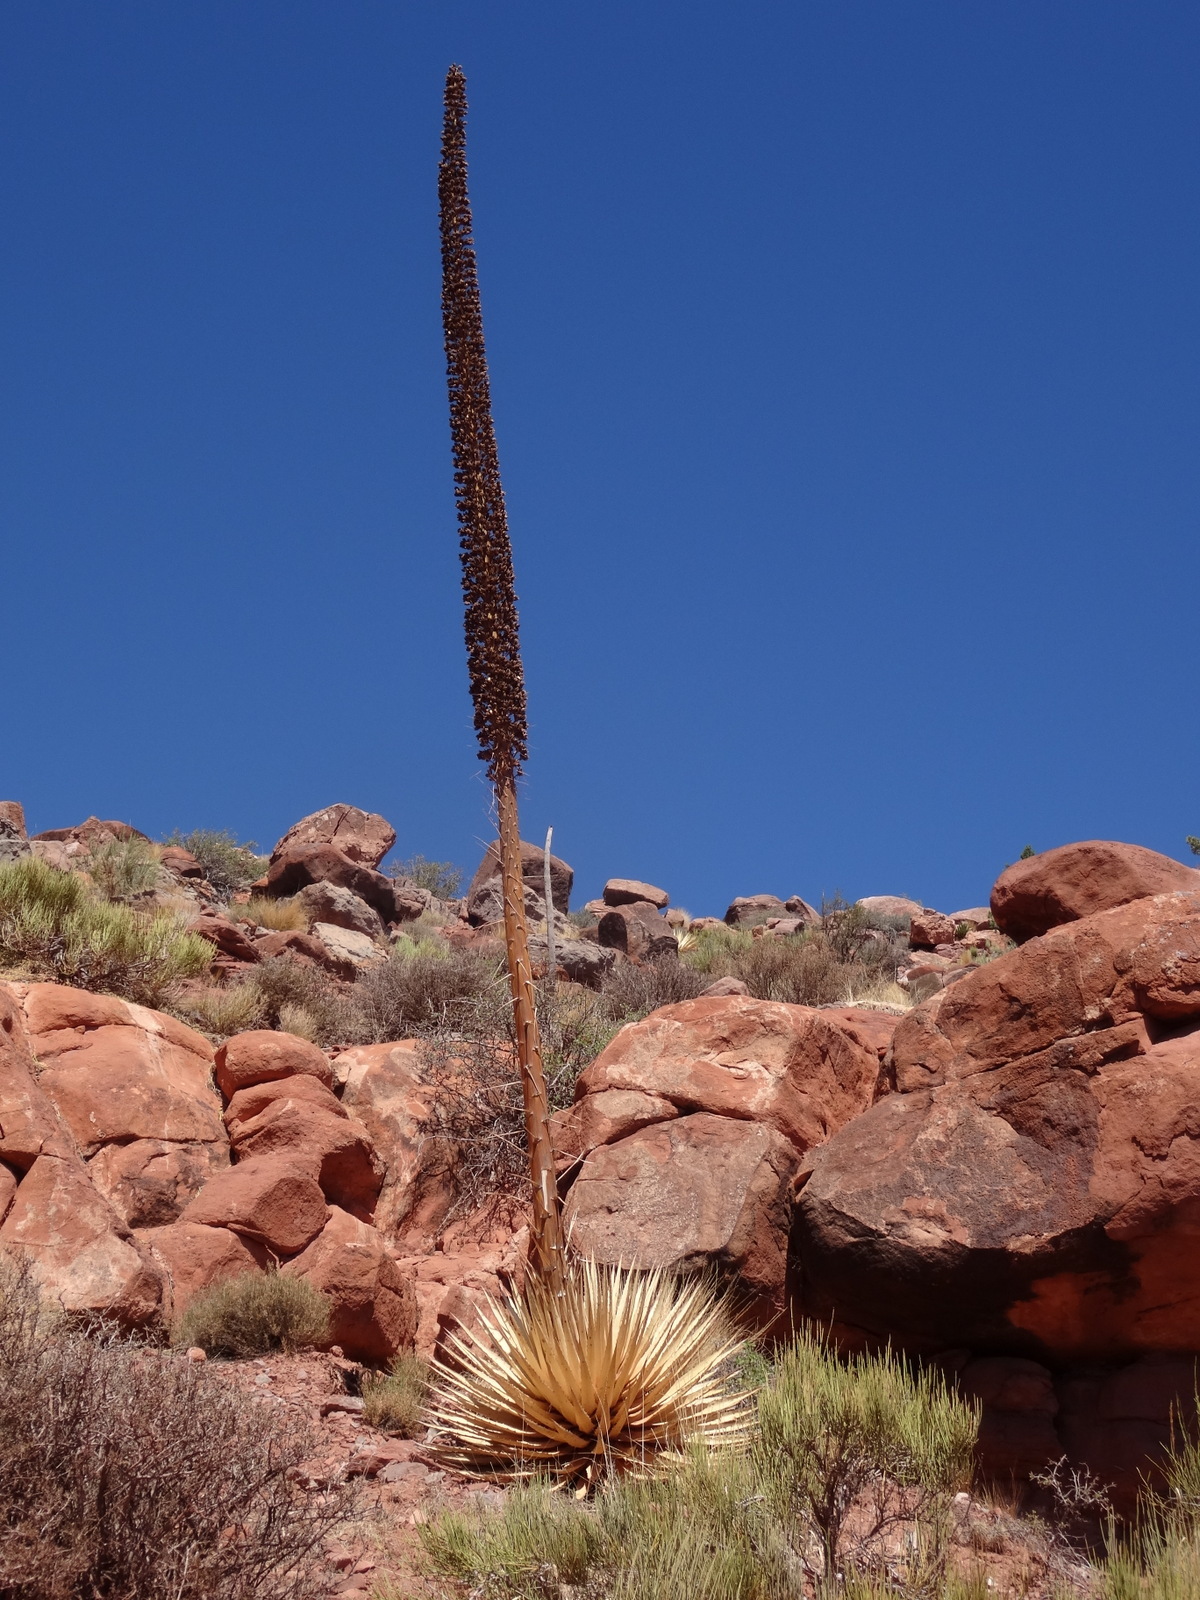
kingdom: Plantae
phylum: Tracheophyta
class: Liliopsida
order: Asparagales
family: Asparagaceae
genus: Agave
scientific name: Agave utahensis
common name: Utah agave
